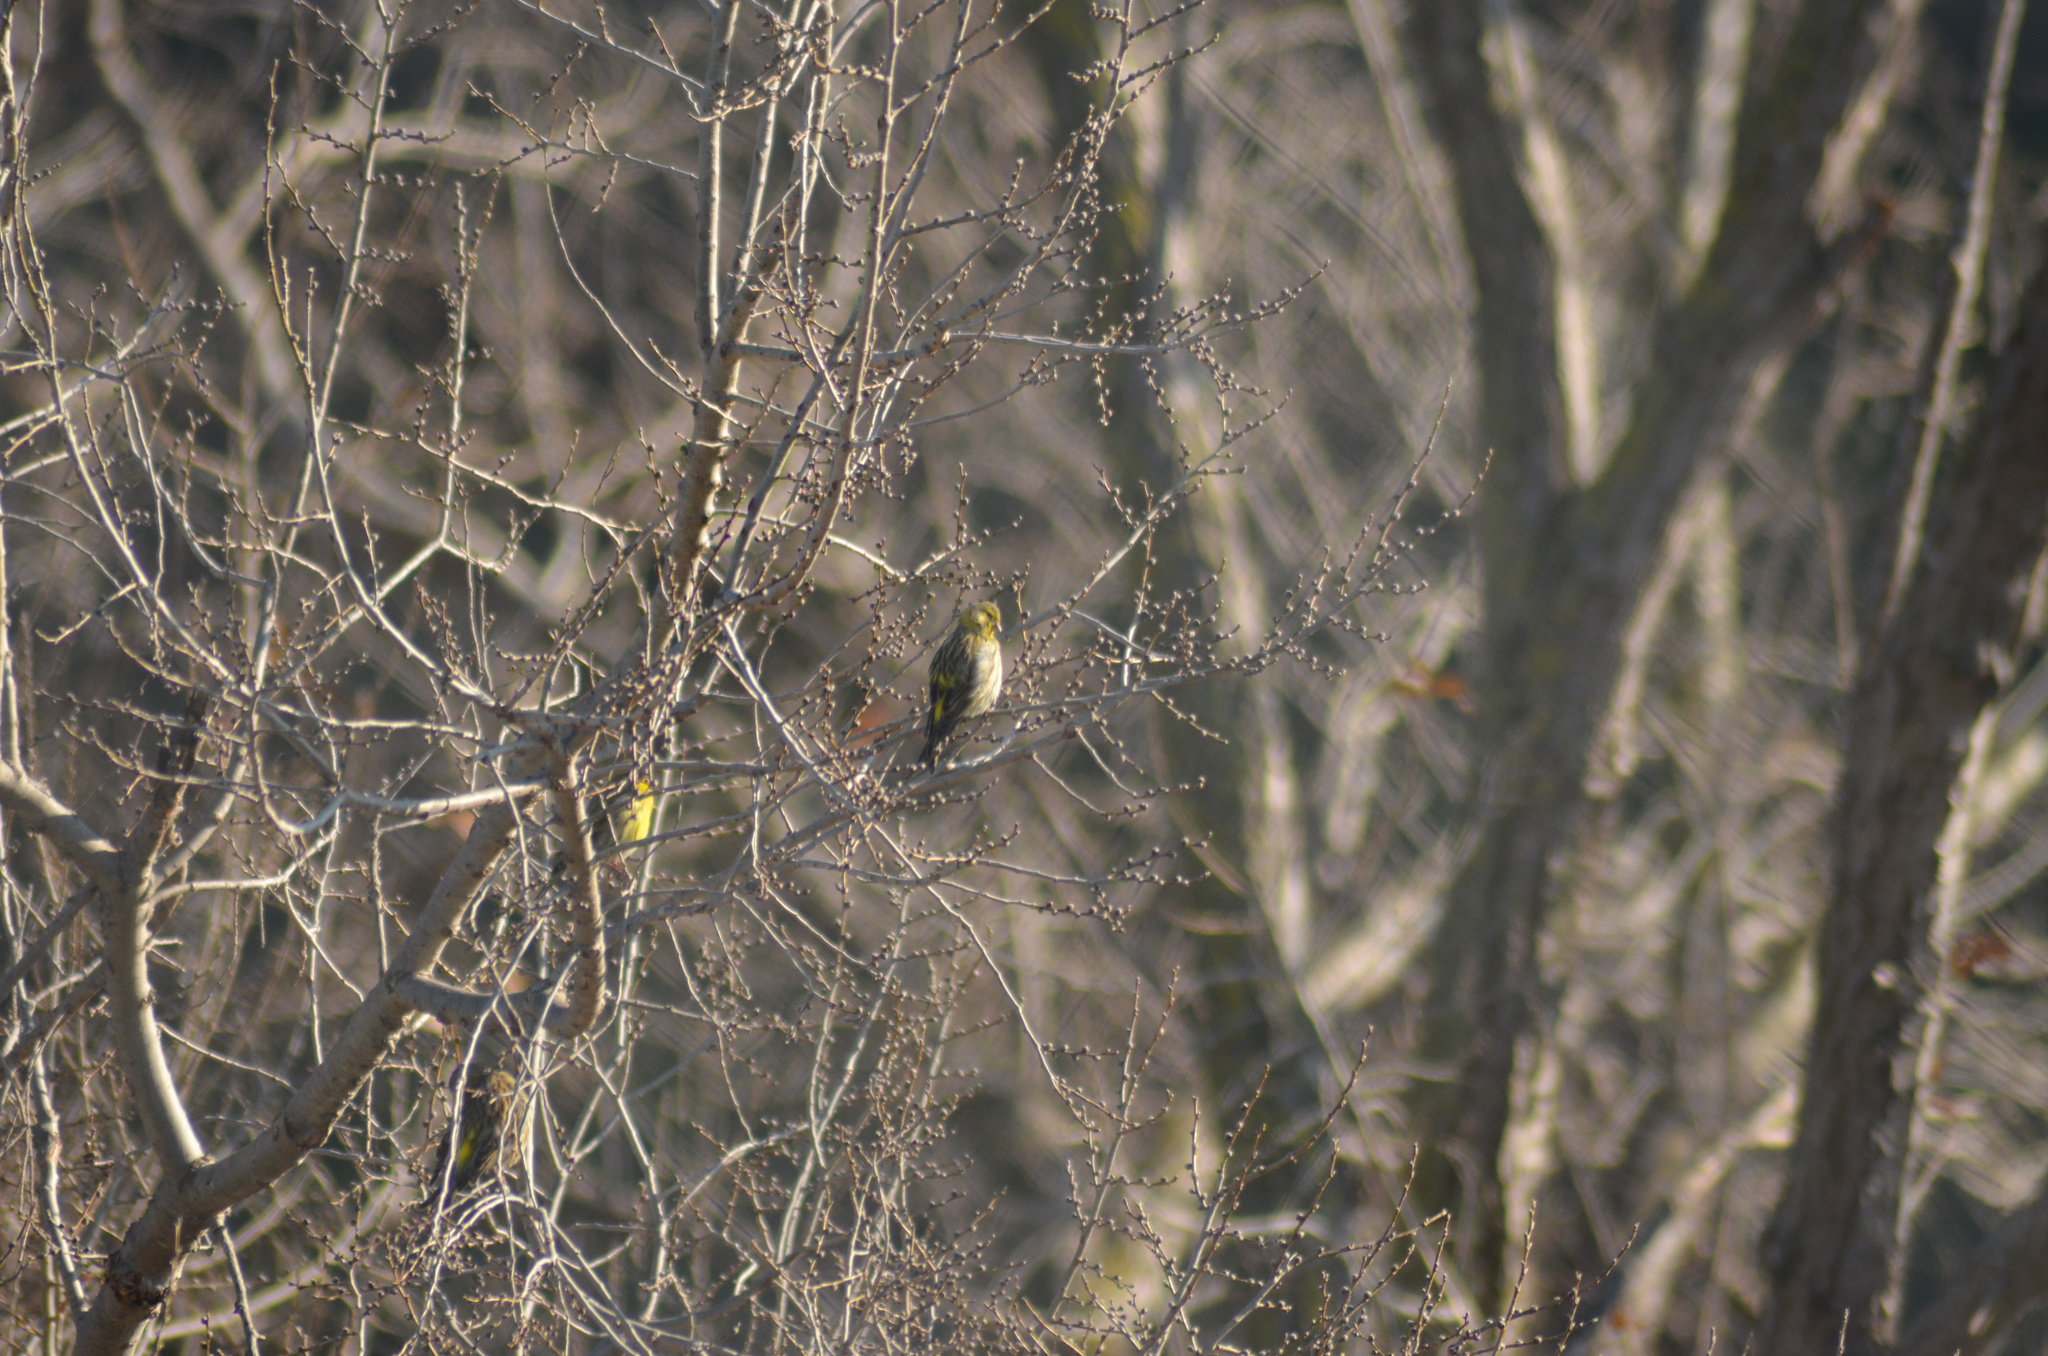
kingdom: Animalia
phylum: Chordata
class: Aves
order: Passeriformes
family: Fringillidae
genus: Serinus
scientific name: Serinus serinus
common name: European serin
